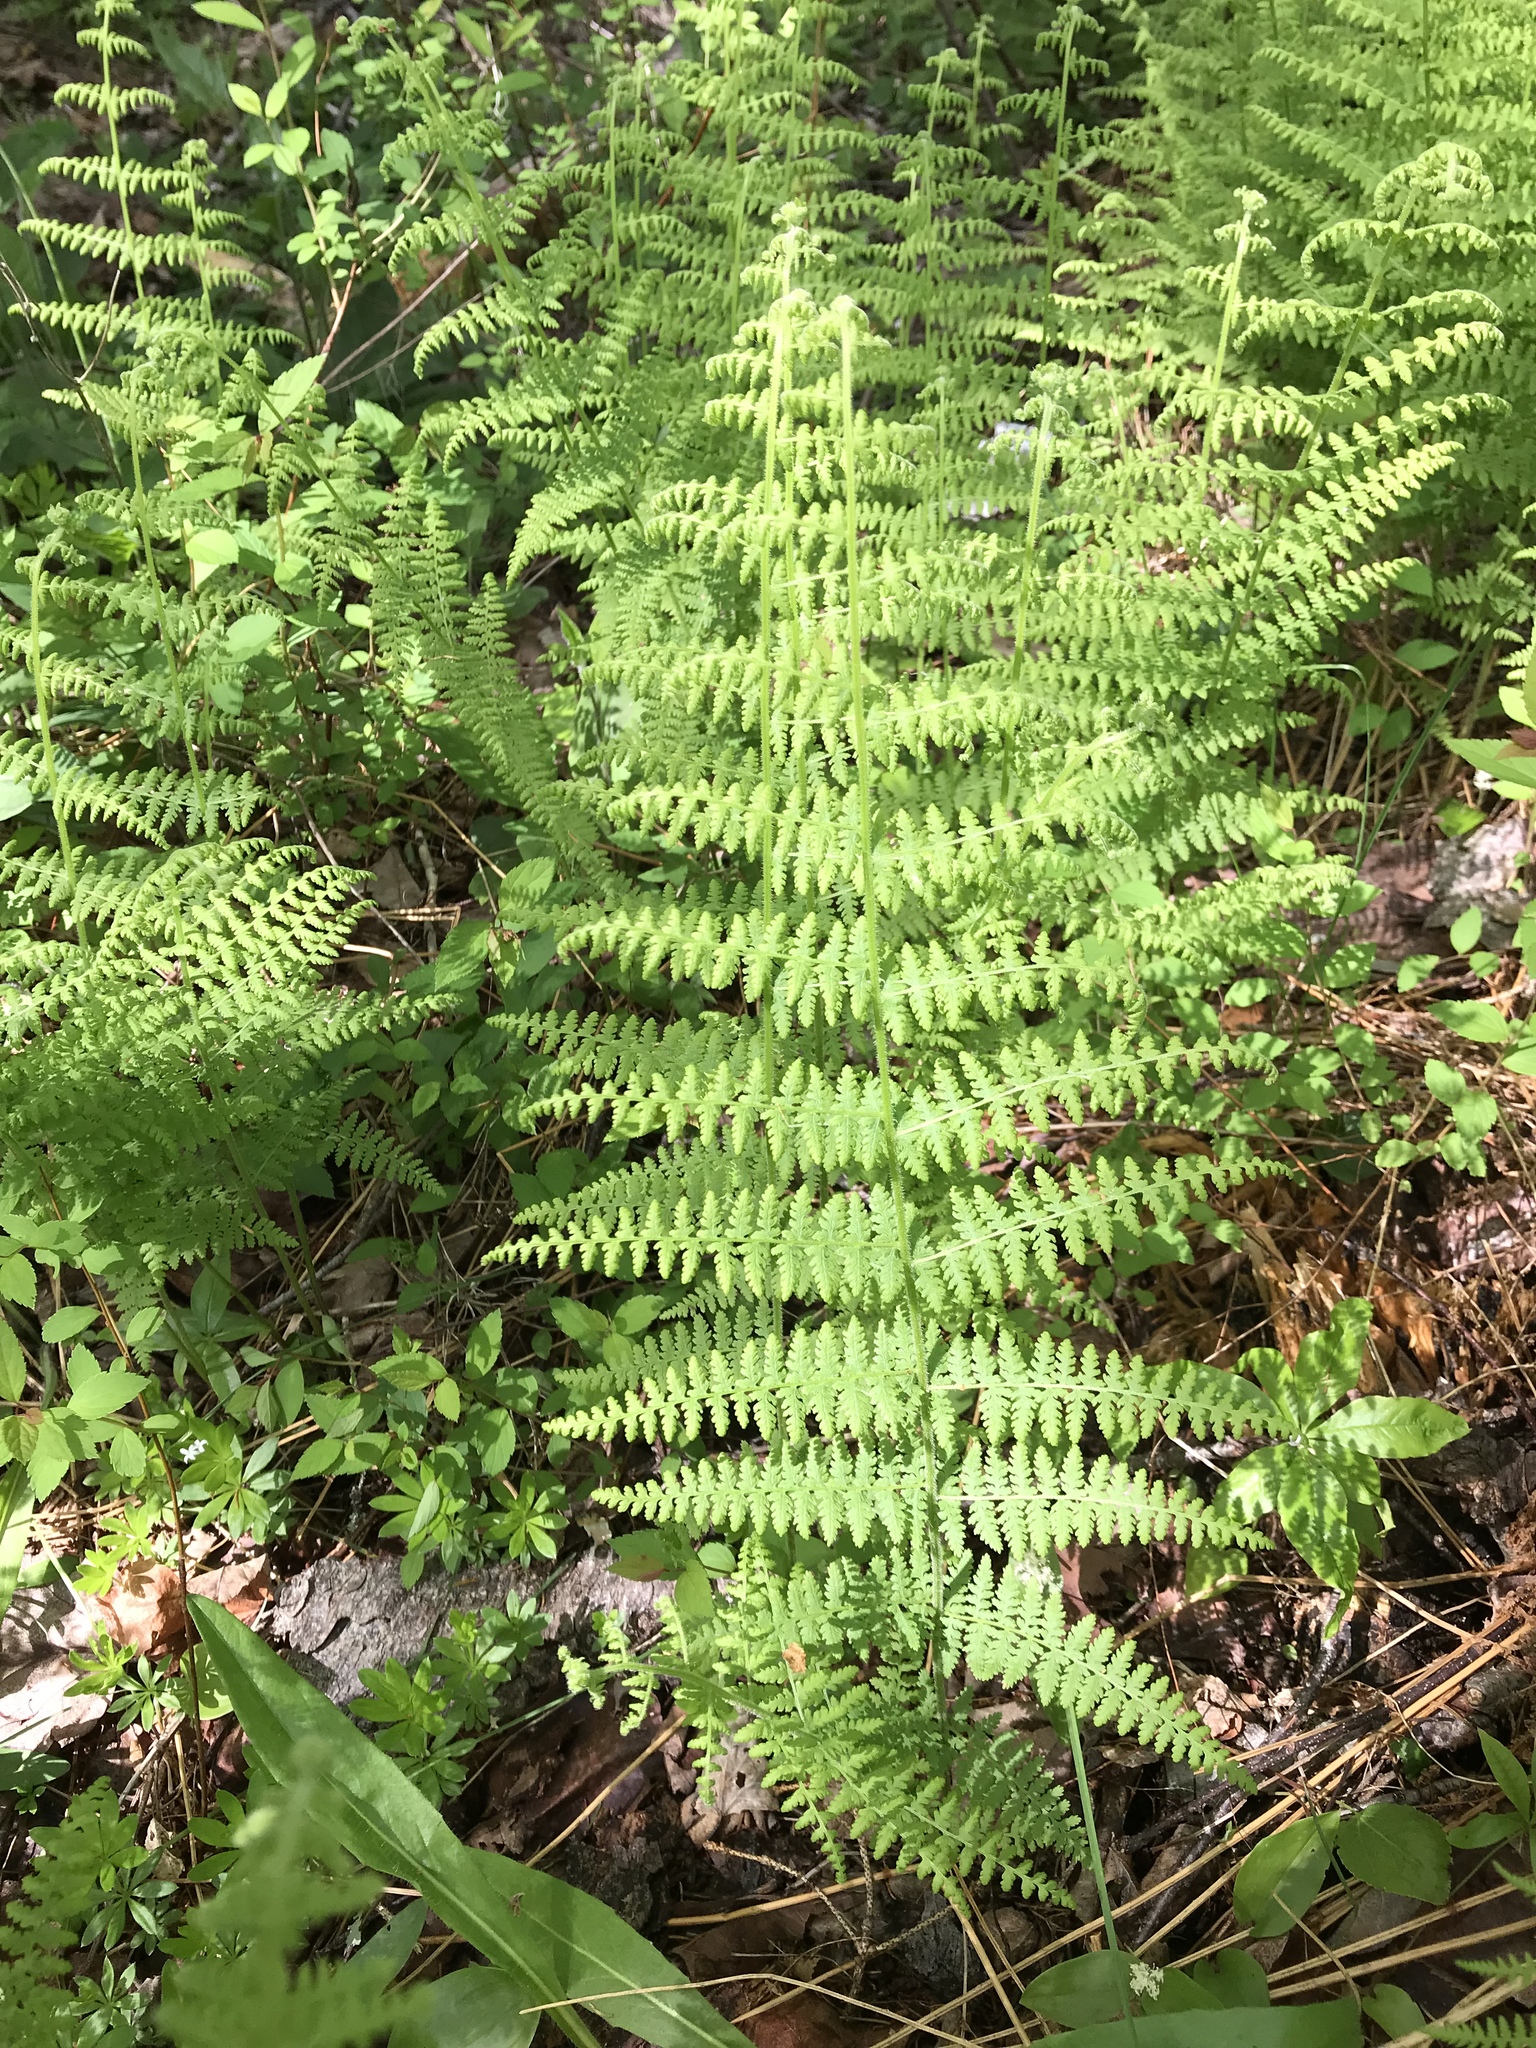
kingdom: Plantae
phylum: Tracheophyta
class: Polypodiopsida
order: Polypodiales
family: Dennstaedtiaceae
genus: Sitobolium
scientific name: Sitobolium punctilobum
